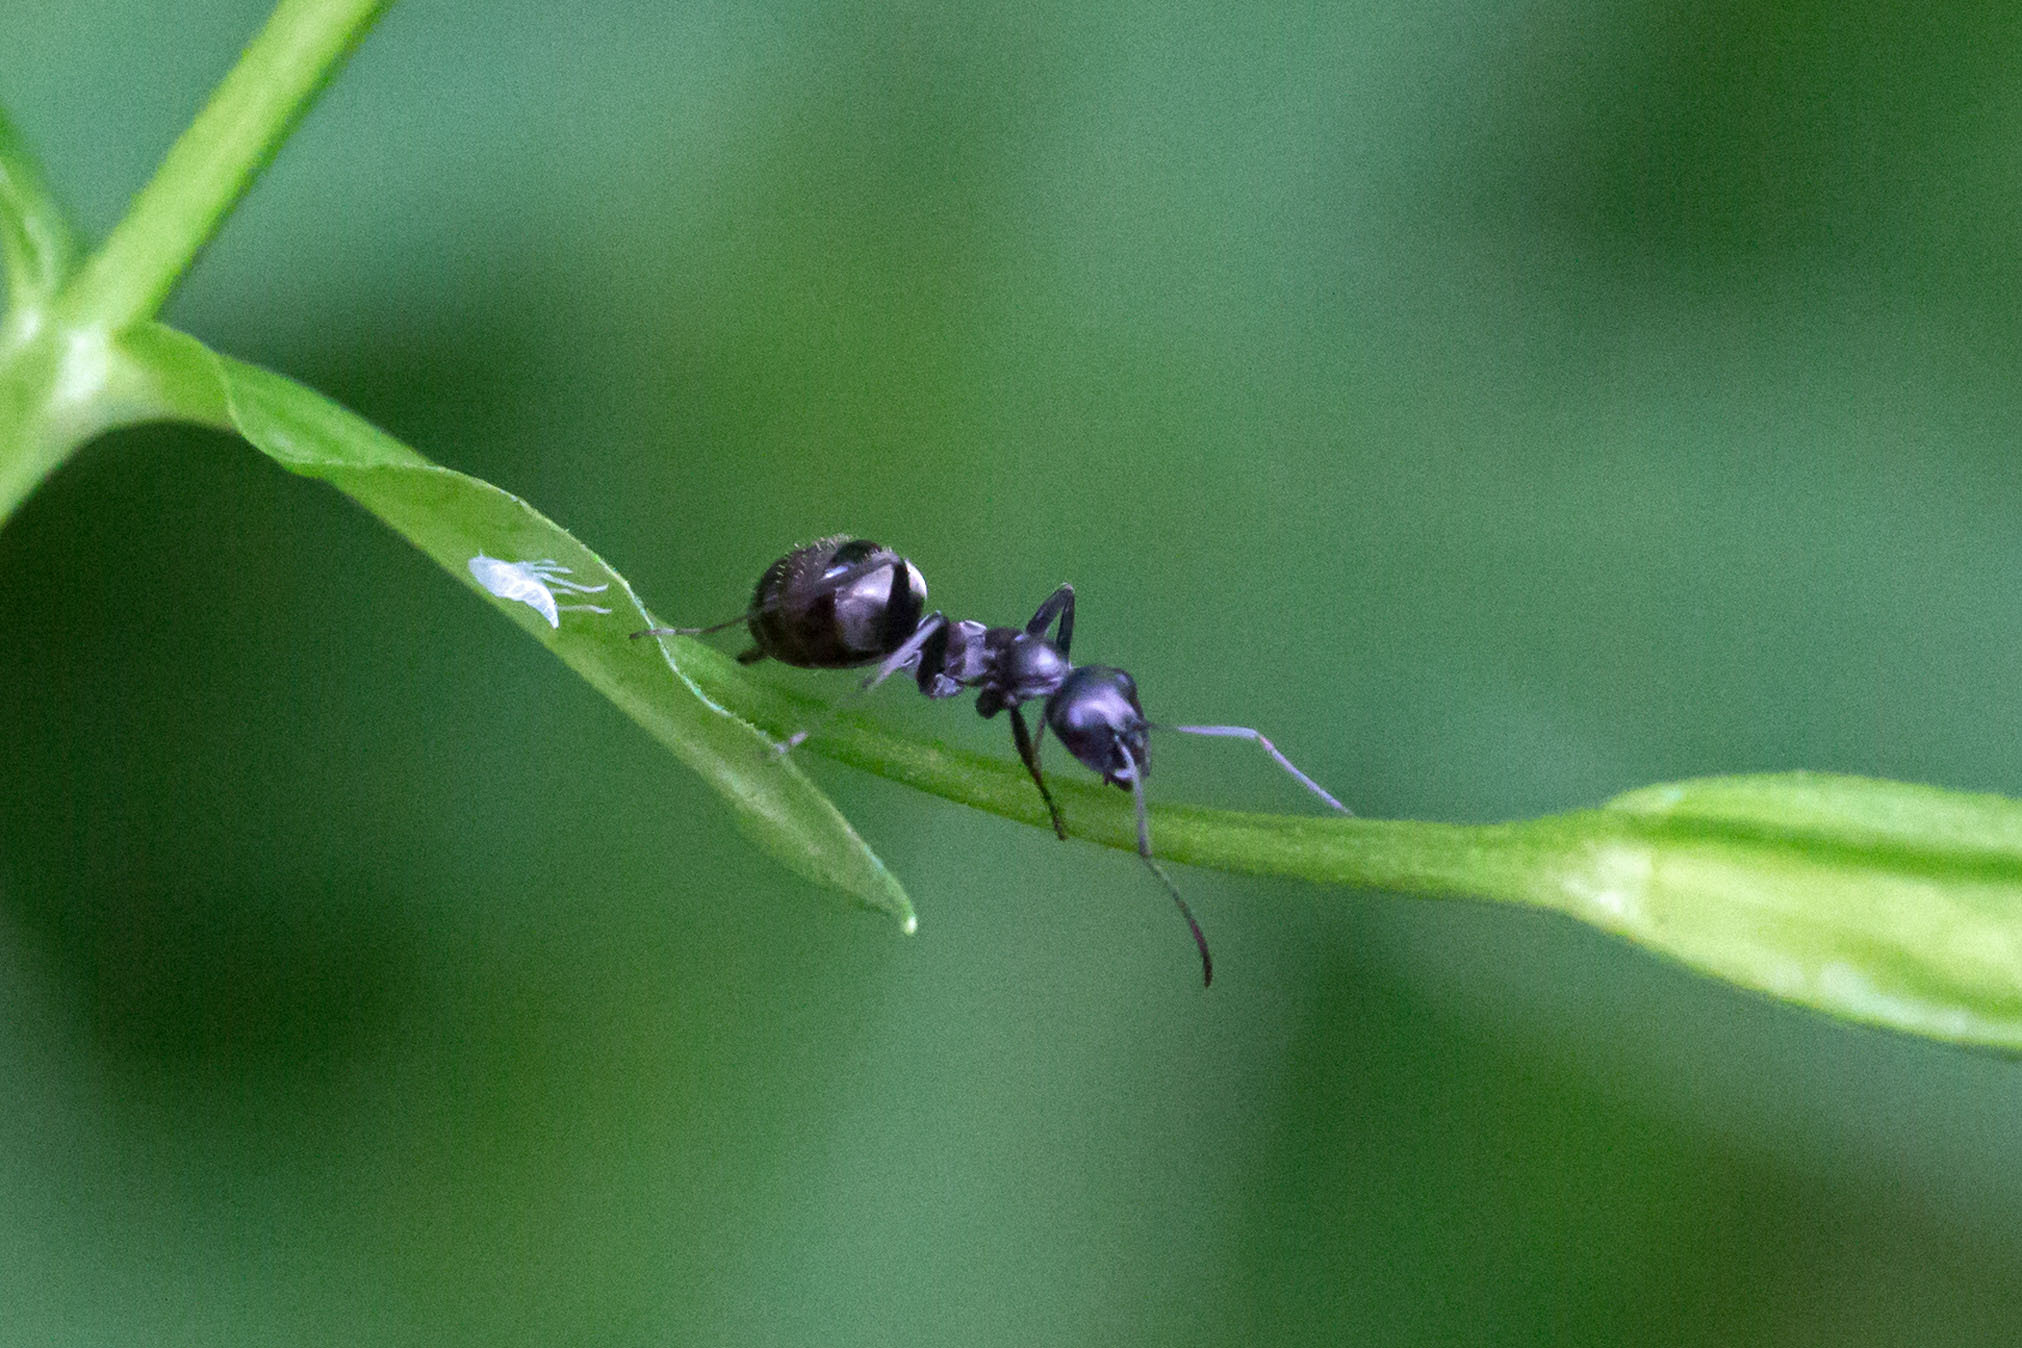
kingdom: Animalia
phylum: Arthropoda
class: Insecta
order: Hymenoptera
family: Formicidae
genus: Formica
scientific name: Formica
